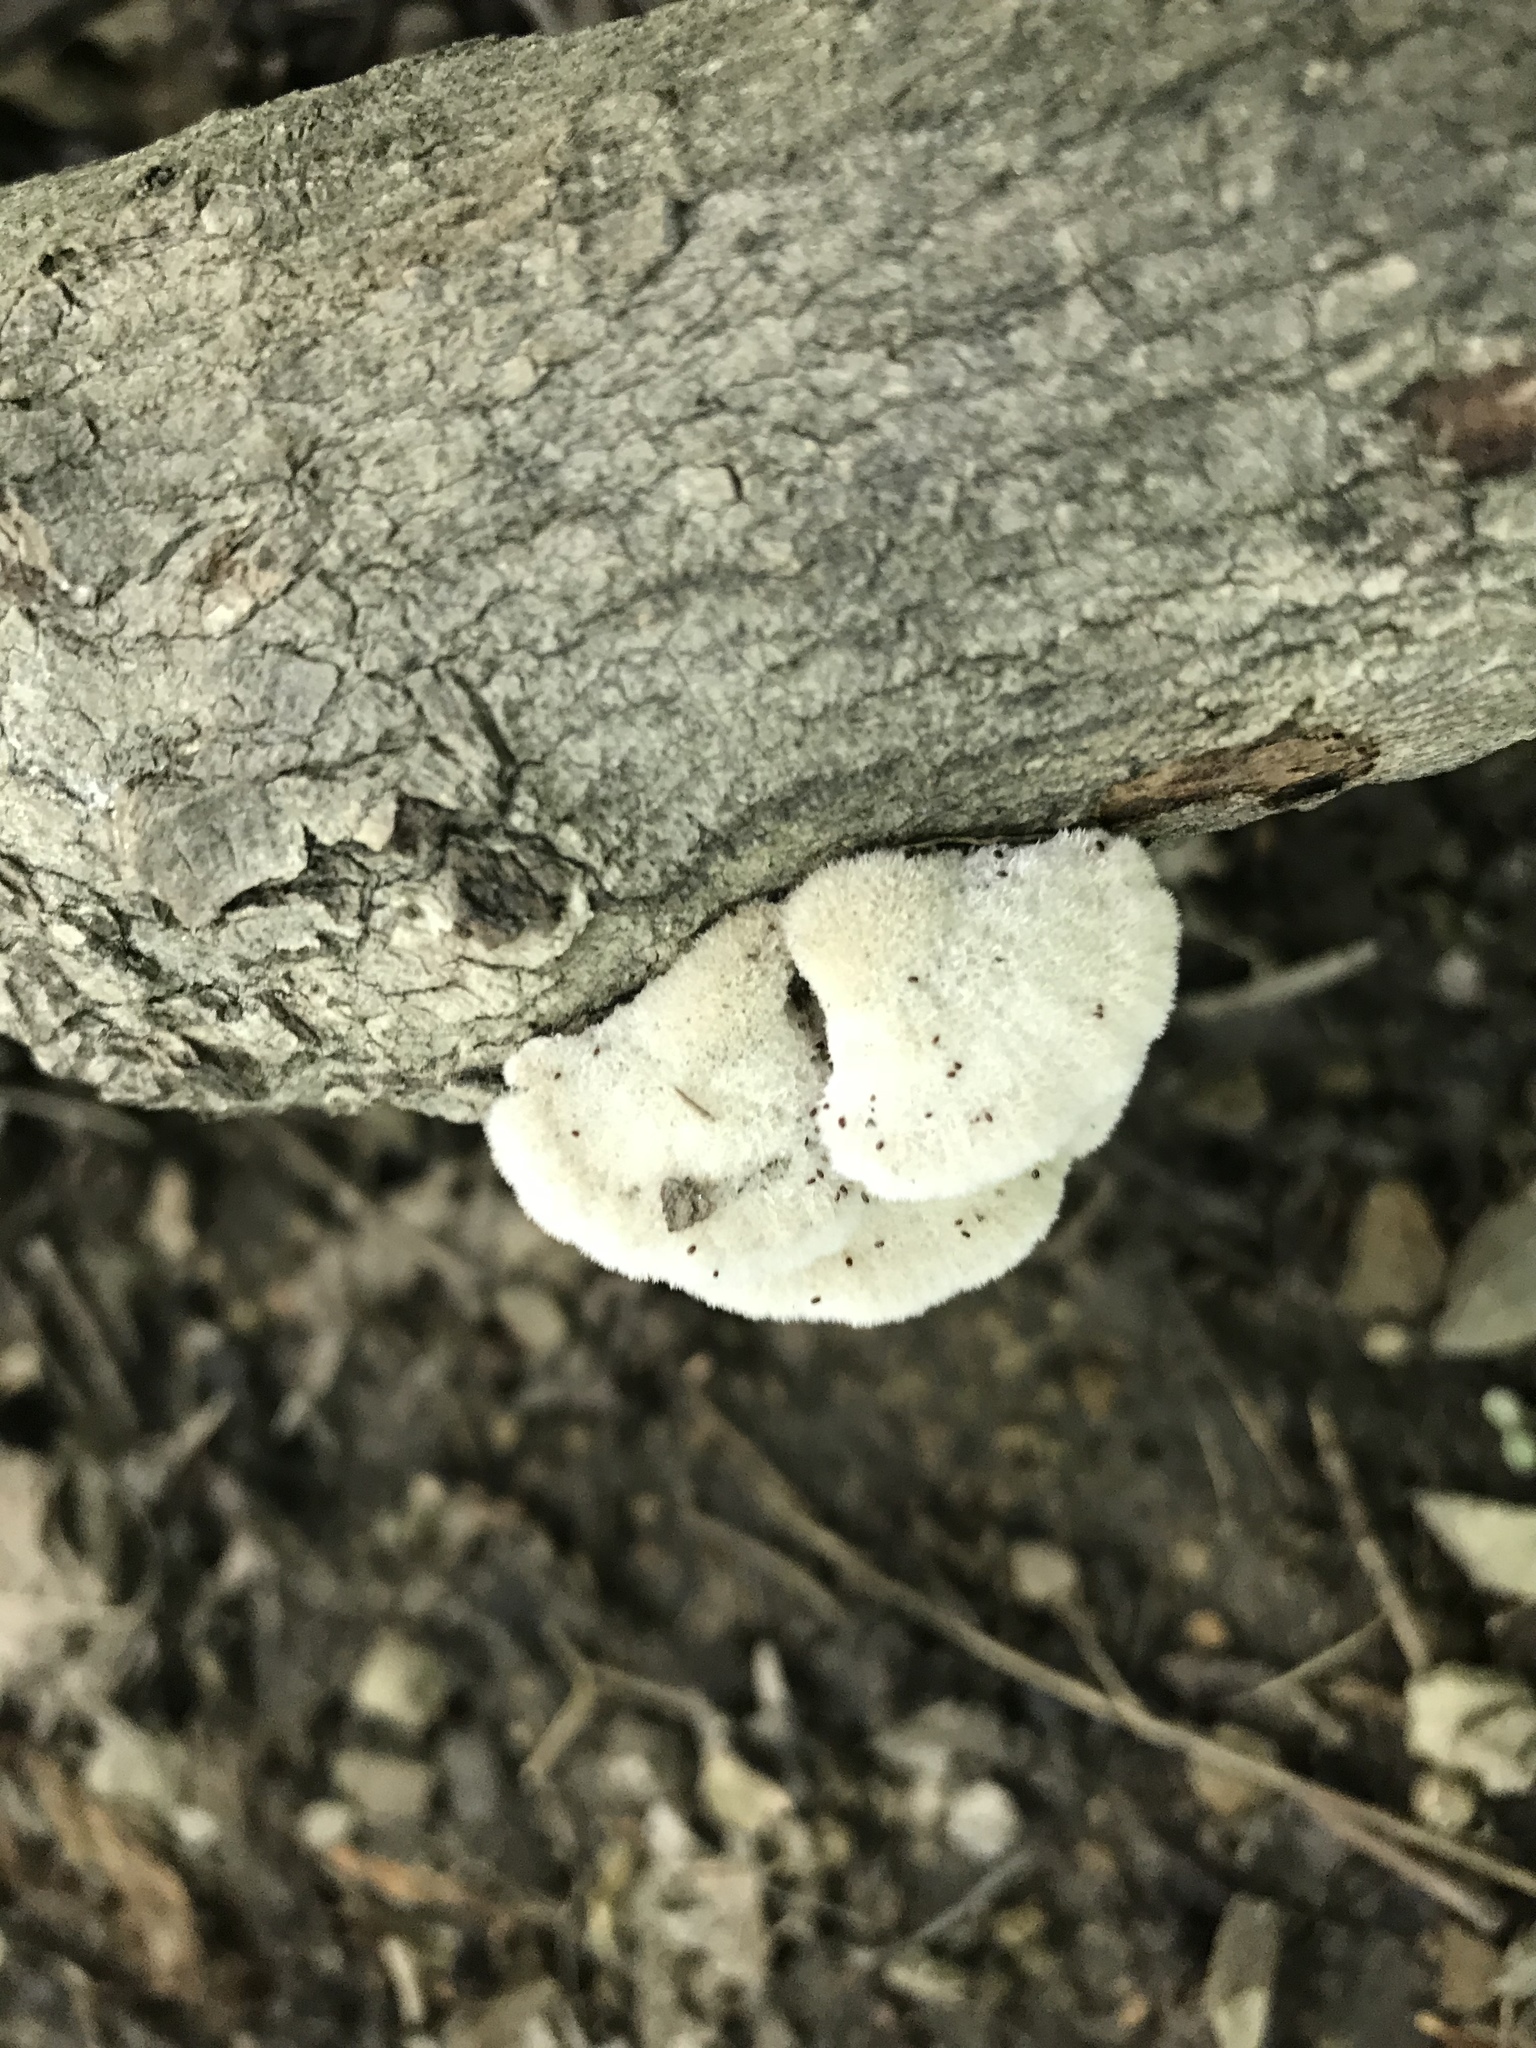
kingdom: Fungi
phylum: Basidiomycota
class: Agaricomycetes
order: Agaricales
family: Schizophyllaceae
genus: Schizophyllum
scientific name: Schizophyllum commune
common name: Common porecrust
